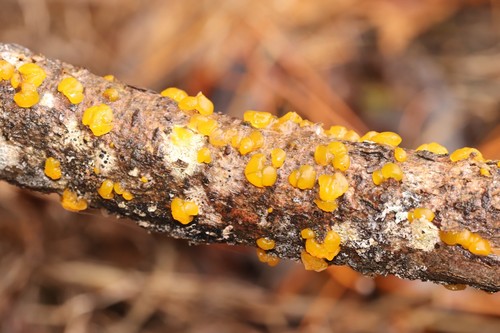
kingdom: Fungi
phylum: Basidiomycota
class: Tremellomycetes
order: Tremellales
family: Tremellaceae
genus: Tremella
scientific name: Tremella mesenterica
